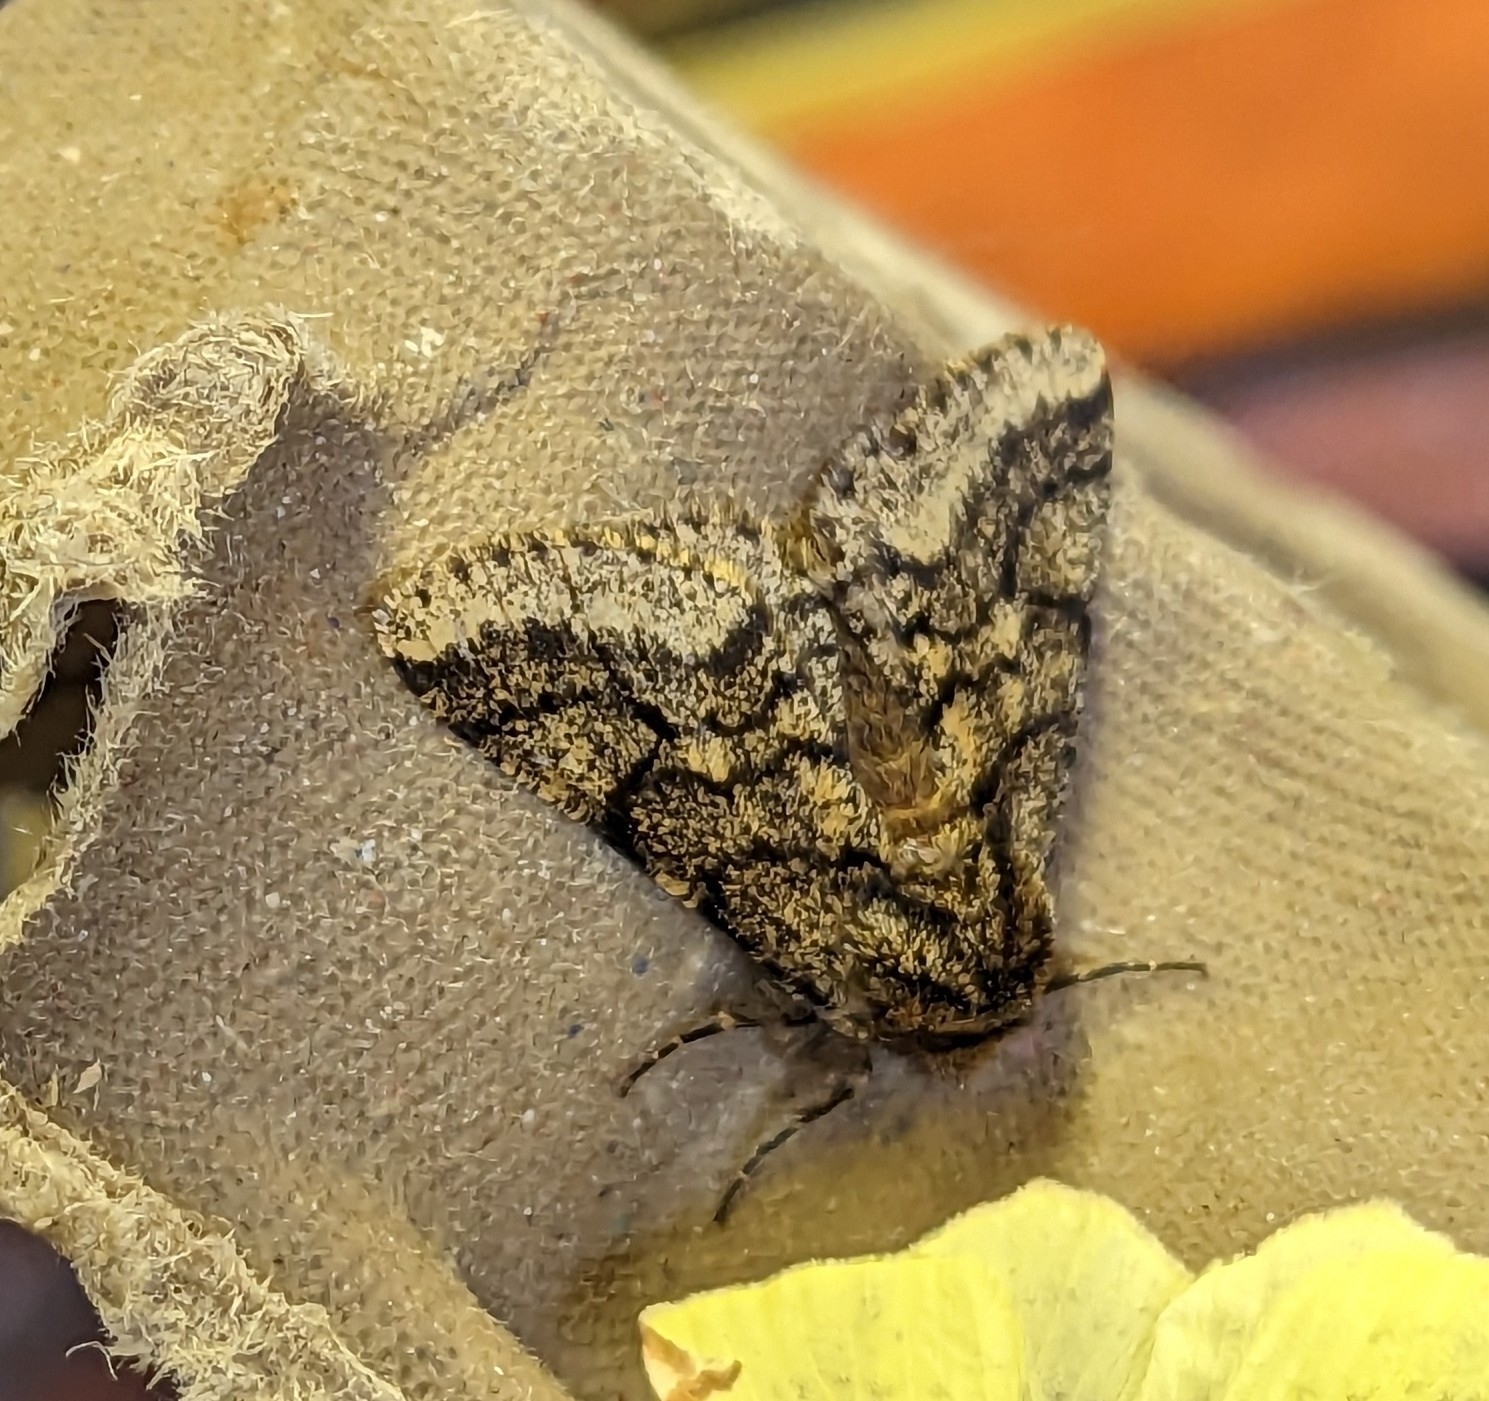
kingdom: Animalia
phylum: Arthropoda
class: Insecta
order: Lepidoptera
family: Geometridae
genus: Lycia
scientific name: Lycia hirtaria
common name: Brindled beauty
